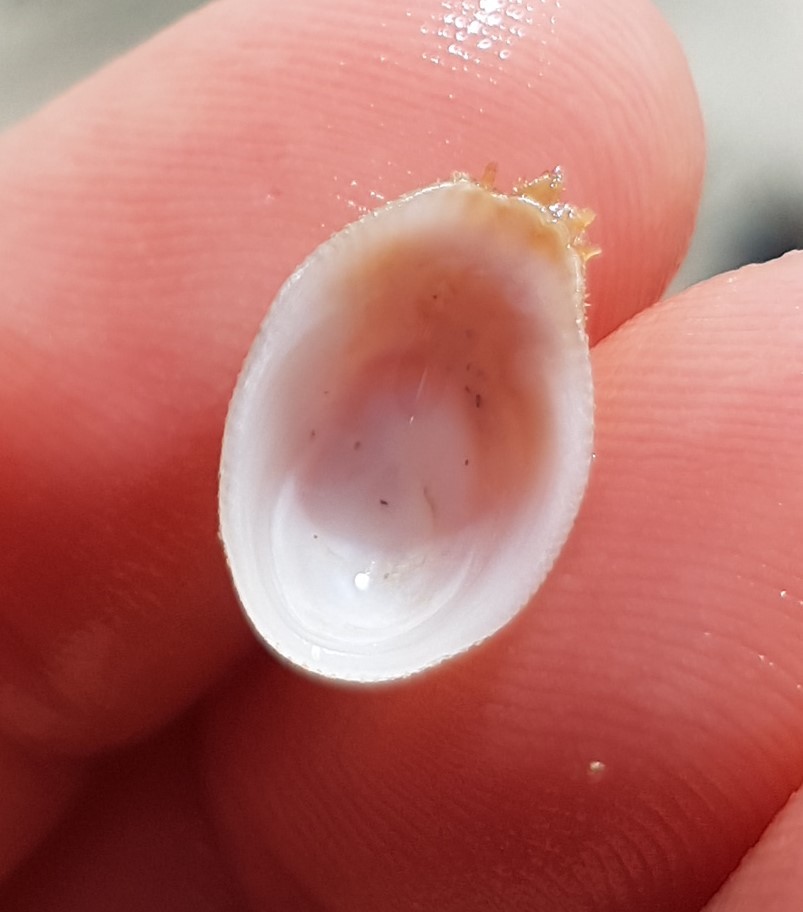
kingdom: Animalia
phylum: Mollusca
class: Gastropoda
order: Littorinimorpha
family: Hipponicidae
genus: Pilosabia
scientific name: Pilosabia trigona
